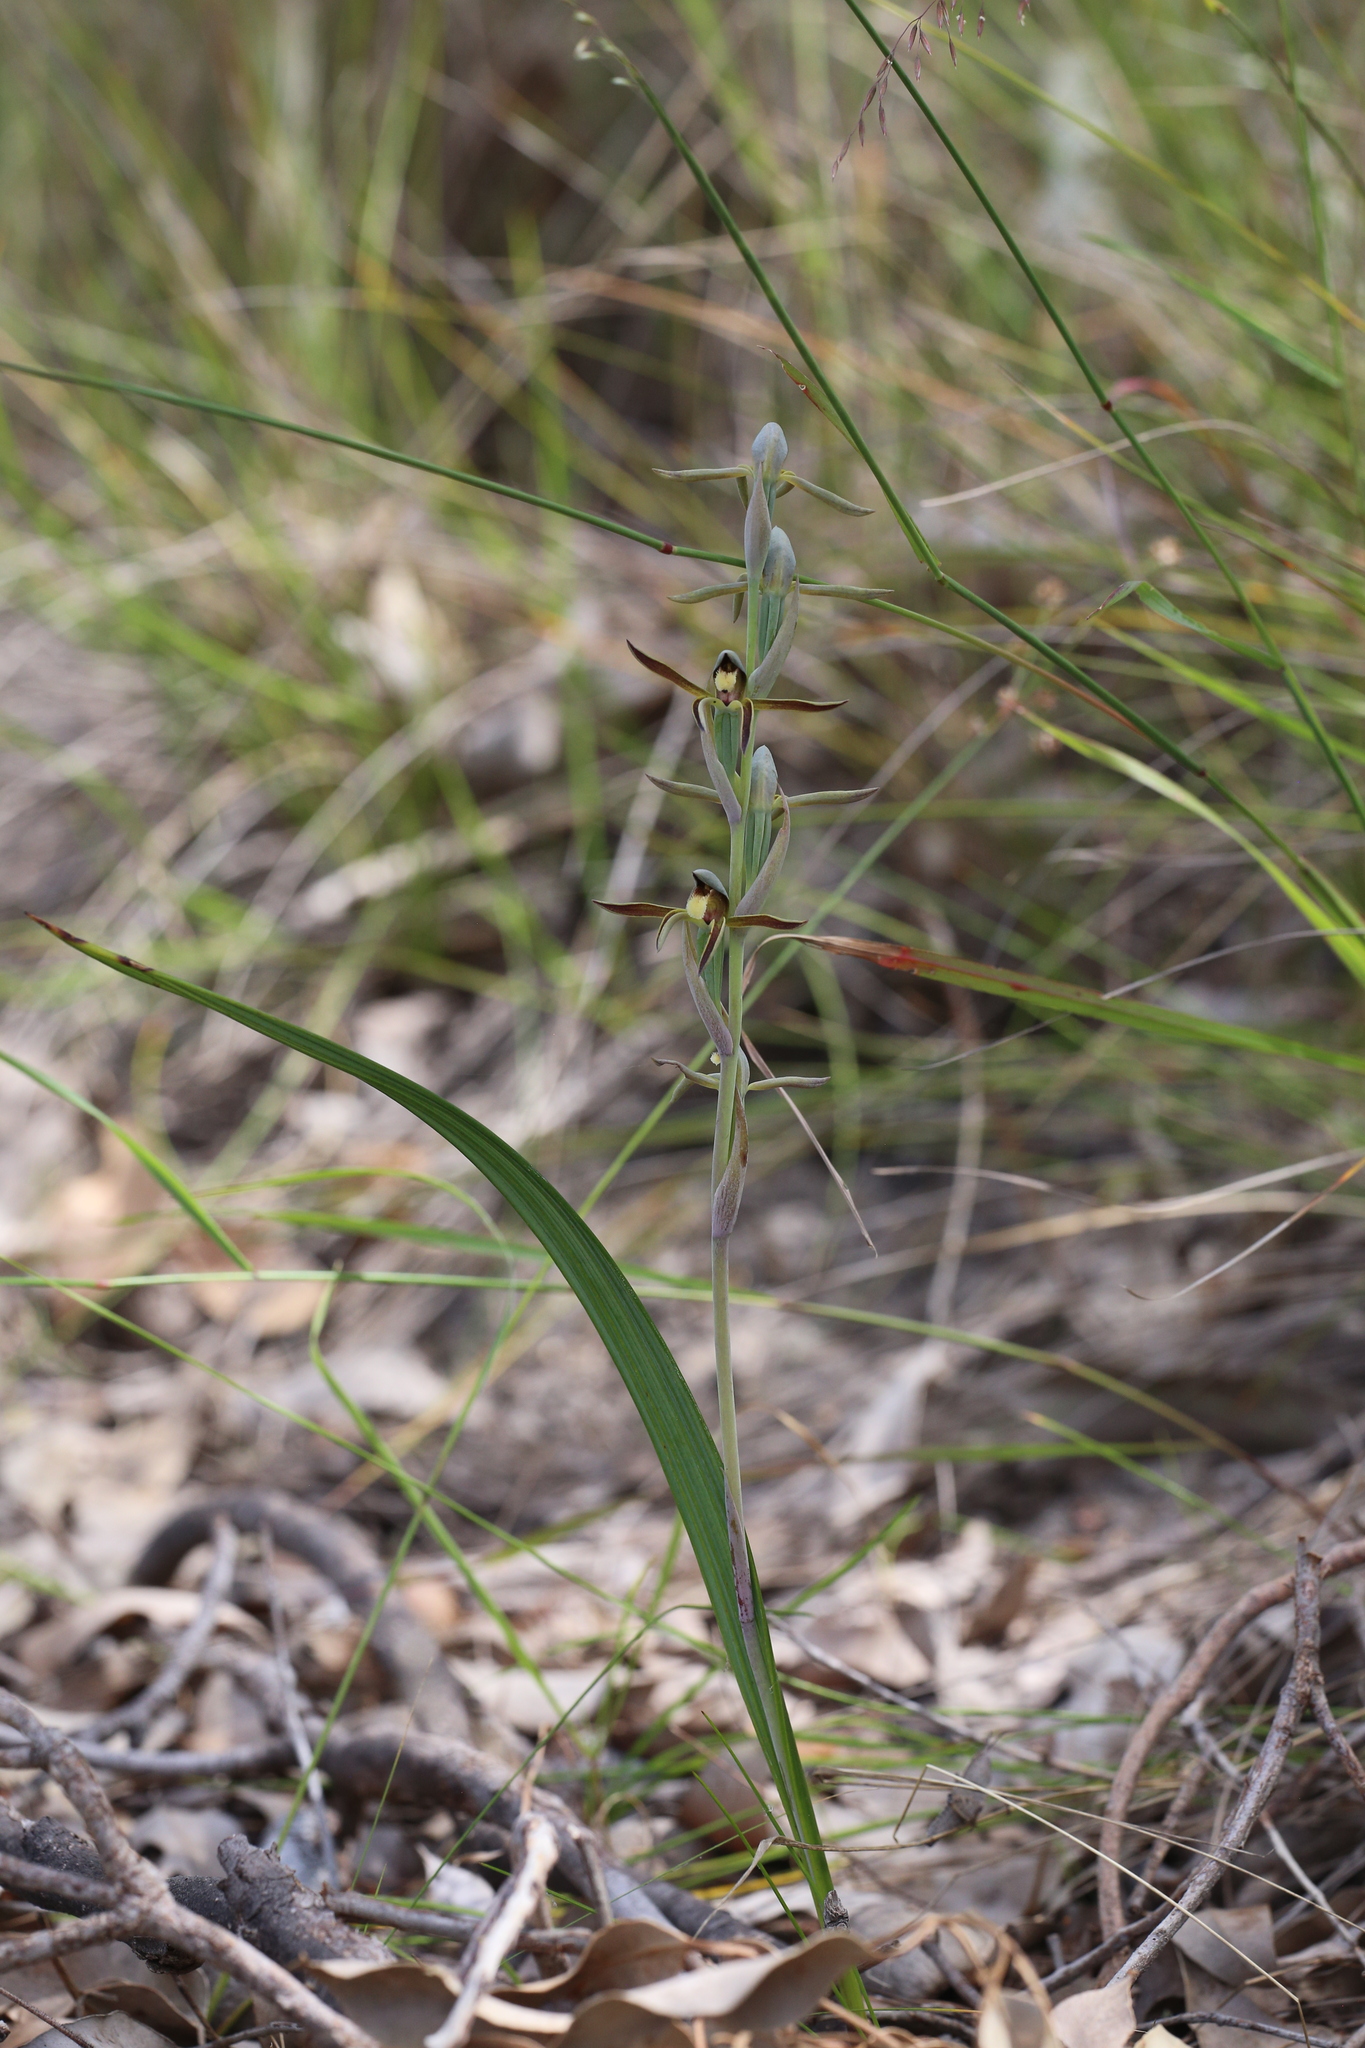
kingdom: Plantae
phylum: Tracheophyta
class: Liliopsida
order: Asparagales
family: Orchidaceae
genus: Lyperanthus
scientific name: Lyperanthus serratus
